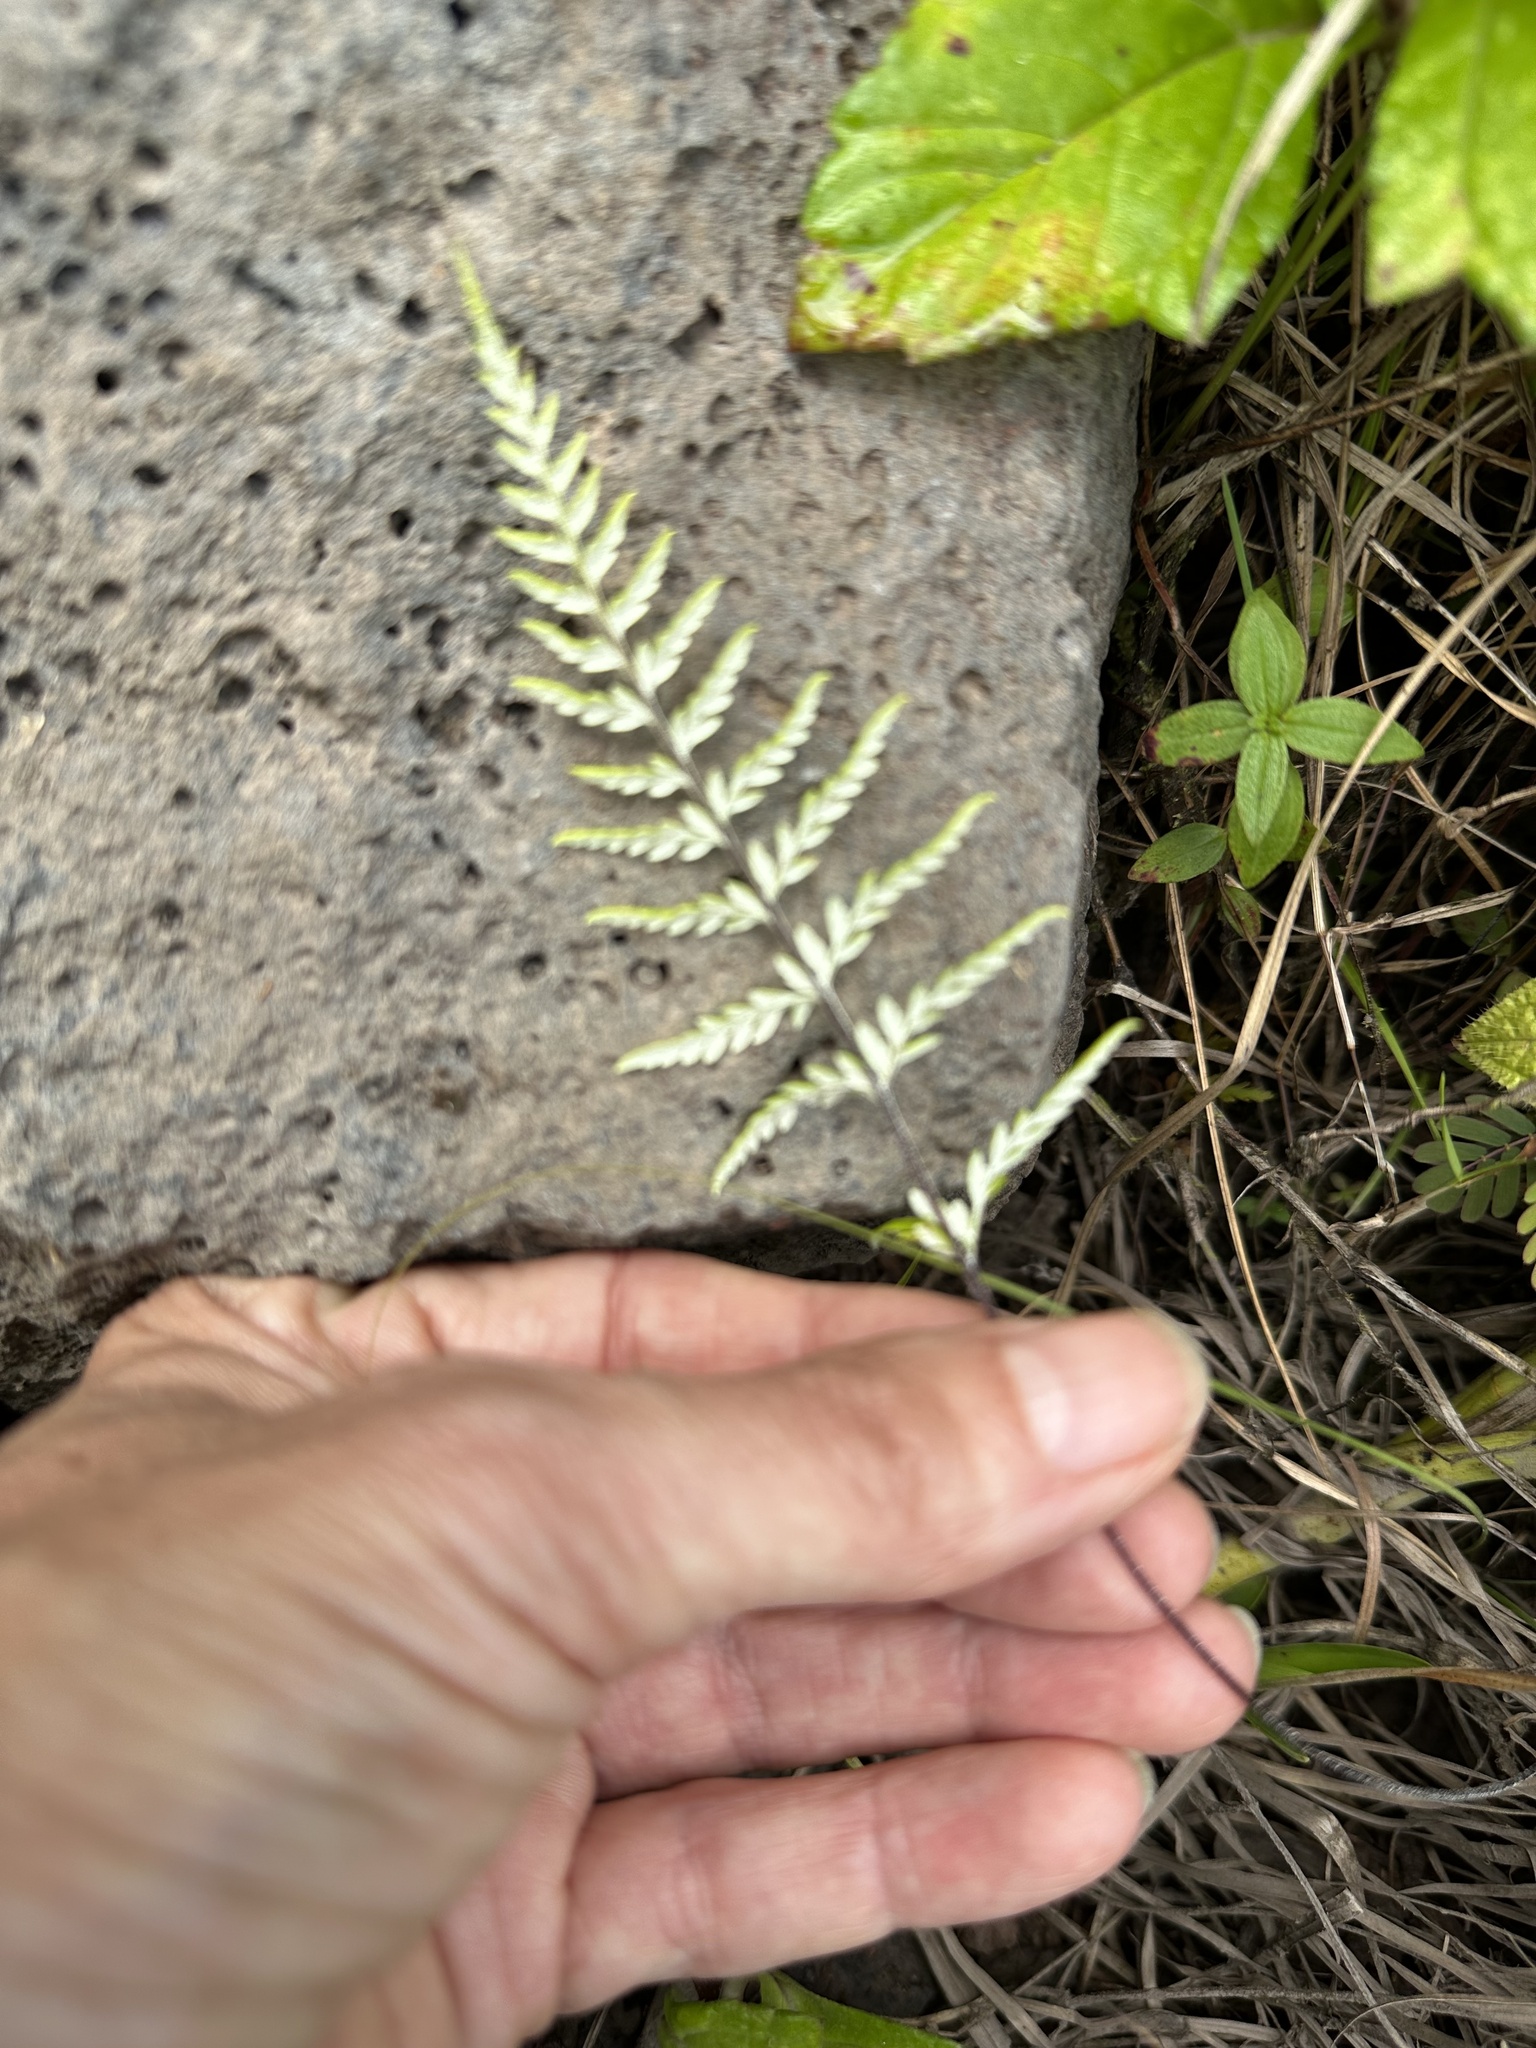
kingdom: Plantae
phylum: Tracheophyta
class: Polypodiopsida
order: Polypodiales
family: Pteridaceae
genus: Pityrogramma
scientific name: Pityrogramma calomelanos
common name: Dixie silverback fern
